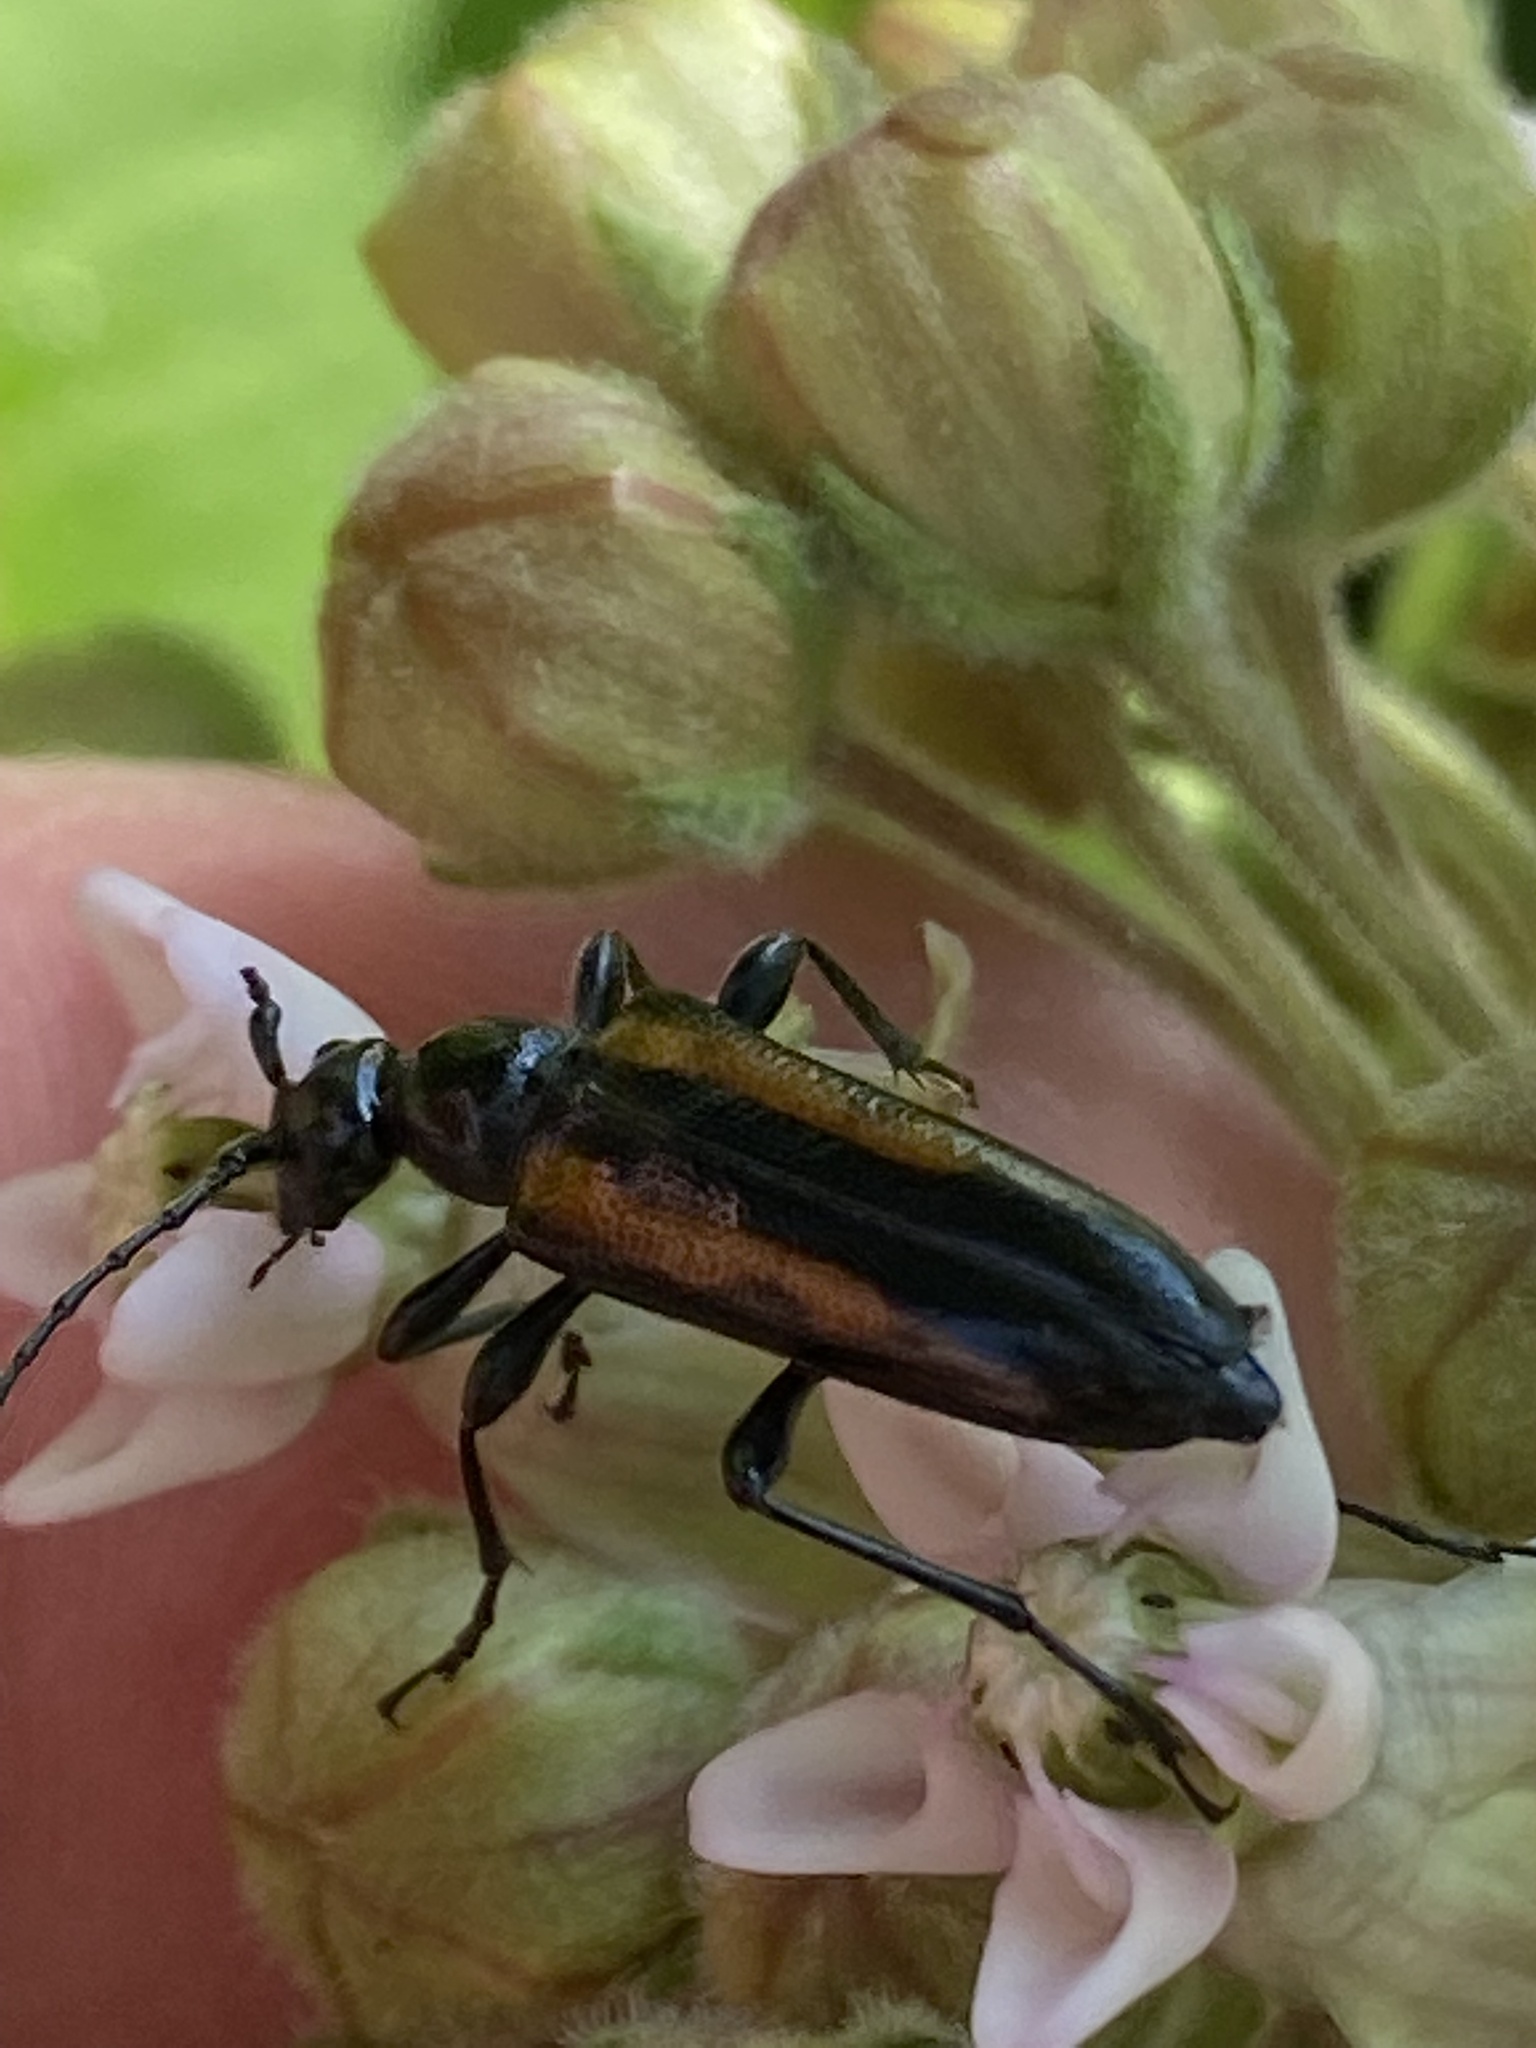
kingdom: Animalia
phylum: Arthropoda
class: Insecta
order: Coleoptera
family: Cerambycidae
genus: Strangalepta
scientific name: Strangalepta abbreviata
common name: Strangalepta flower longhorn beetle
